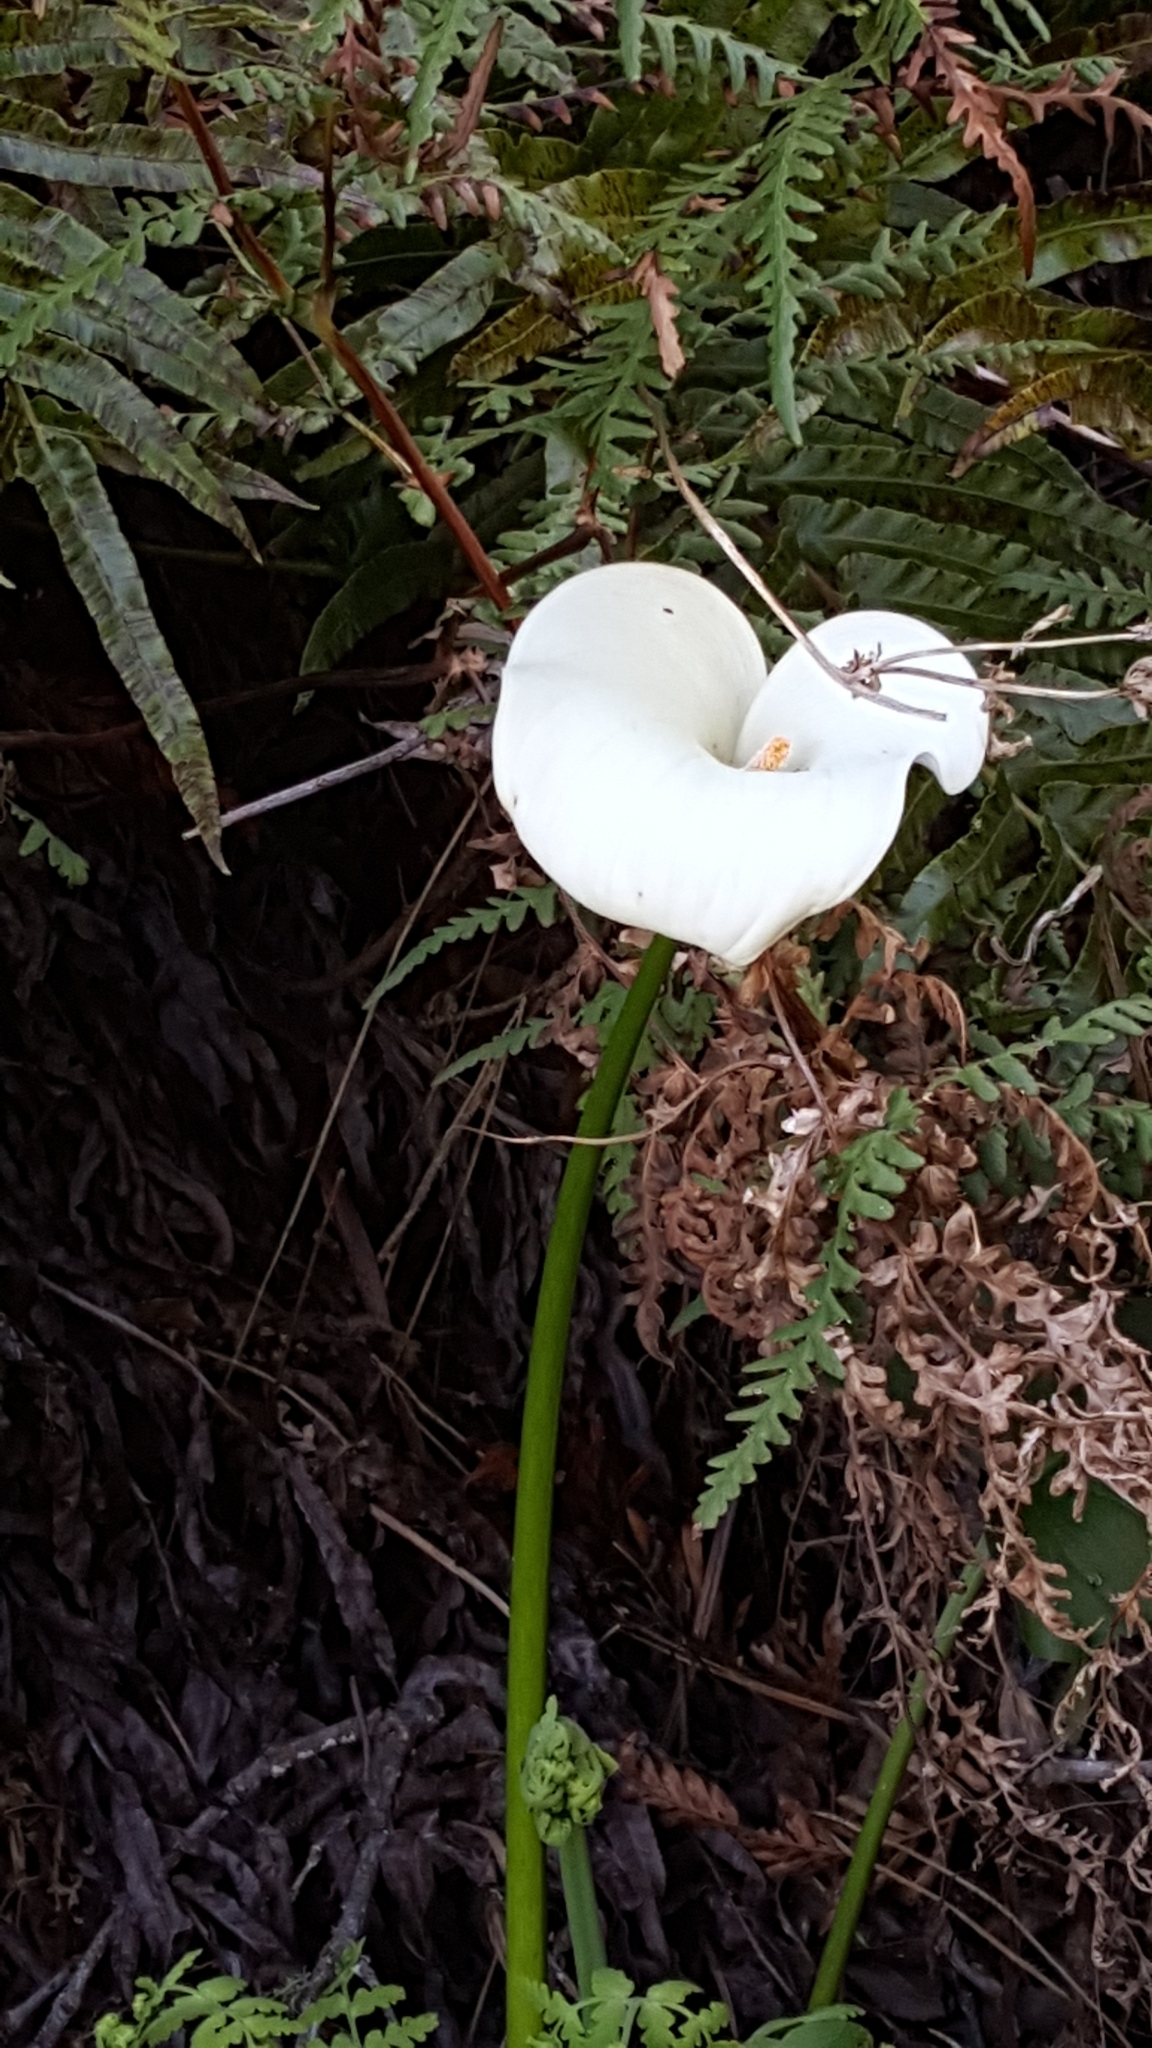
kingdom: Plantae
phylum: Tracheophyta
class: Liliopsida
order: Alismatales
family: Araceae
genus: Zantedeschia
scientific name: Zantedeschia aethiopica
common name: Altar-lily
